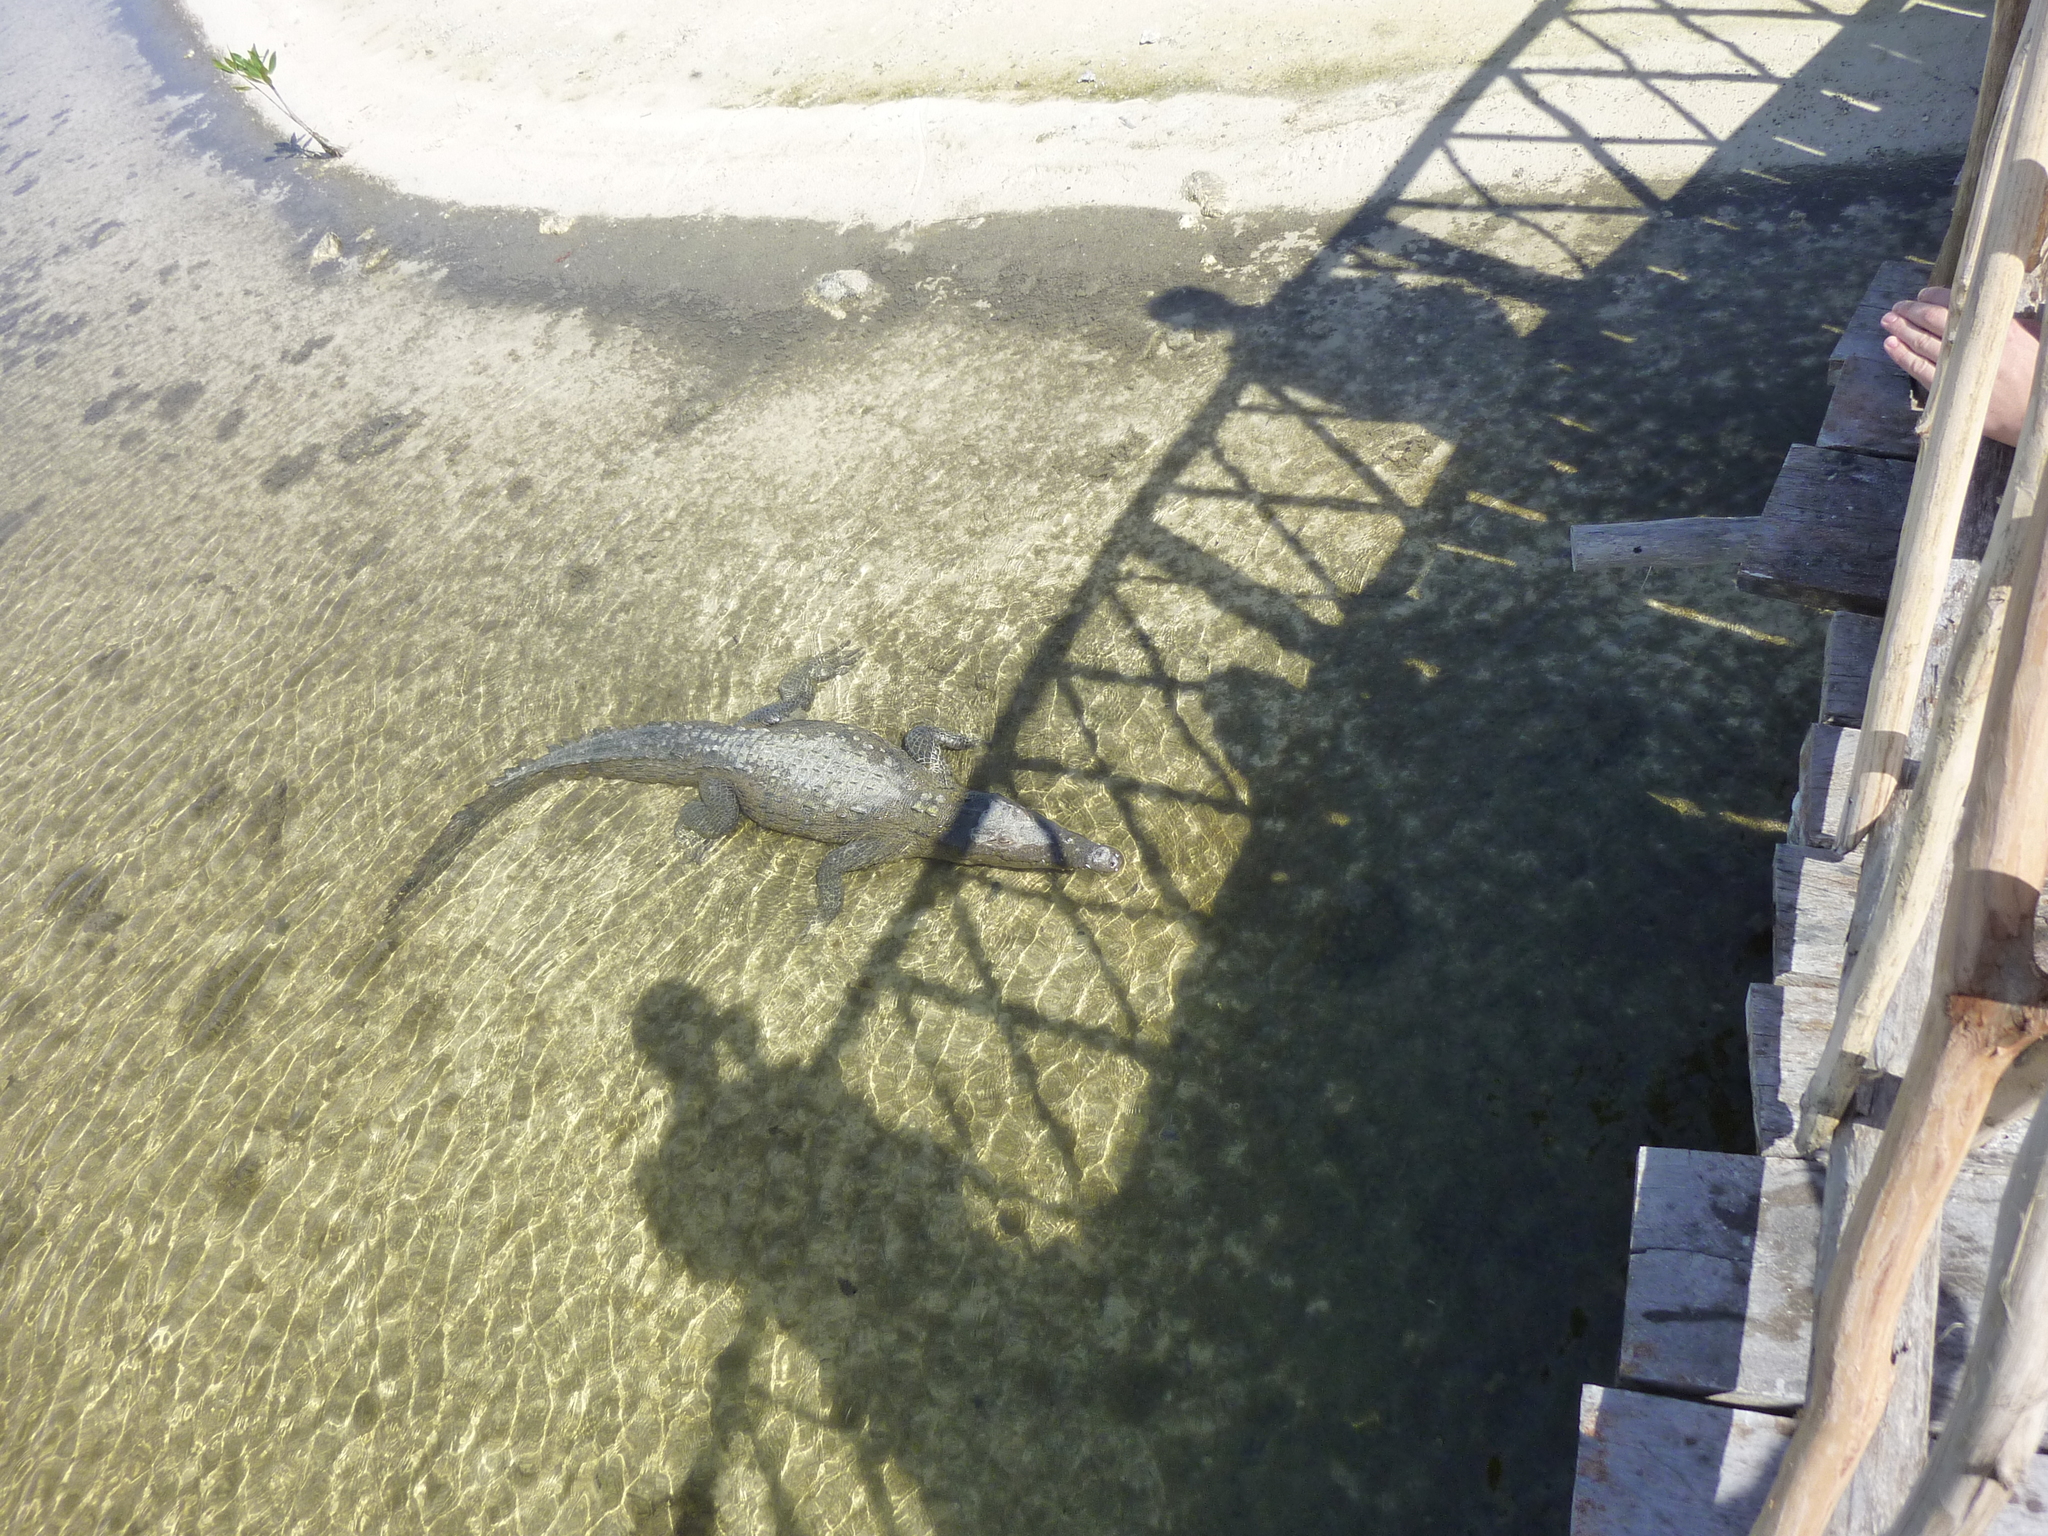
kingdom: Animalia
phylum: Chordata
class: Crocodylia
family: Crocodylidae
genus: Crocodylus
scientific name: Crocodylus acutus
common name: American crocodile
